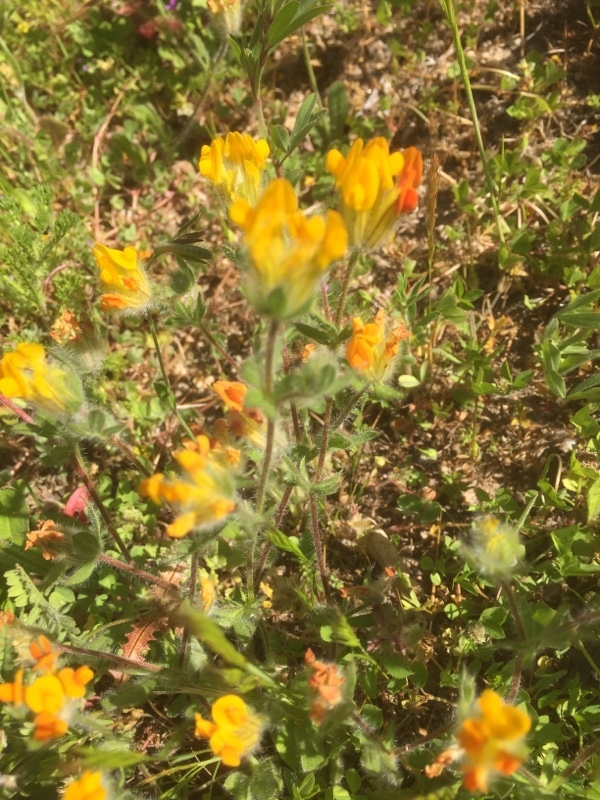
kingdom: Plantae
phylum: Tracheophyta
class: Magnoliopsida
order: Fabales
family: Fabaceae
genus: Anthyllis
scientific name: Anthyllis lotoides
